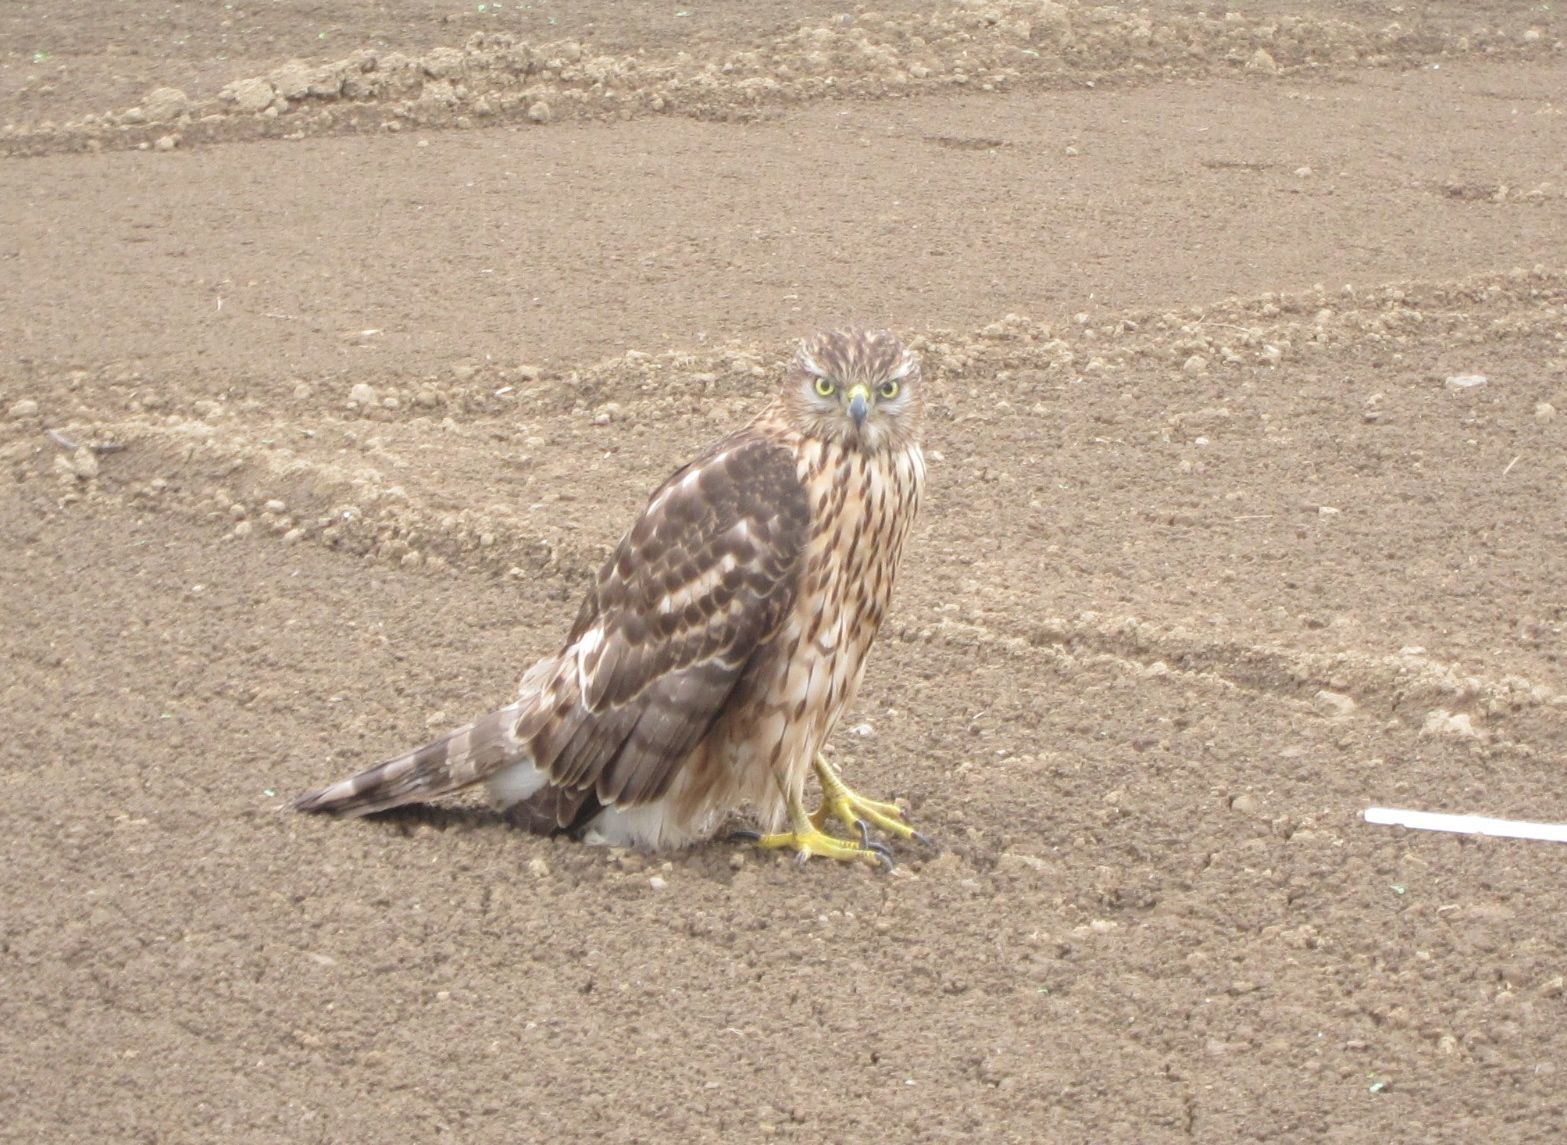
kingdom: Animalia
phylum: Chordata
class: Aves
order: Accipitriformes
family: Accipitridae
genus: Accipiter
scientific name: Accipiter gentilis
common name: Northern goshawk
